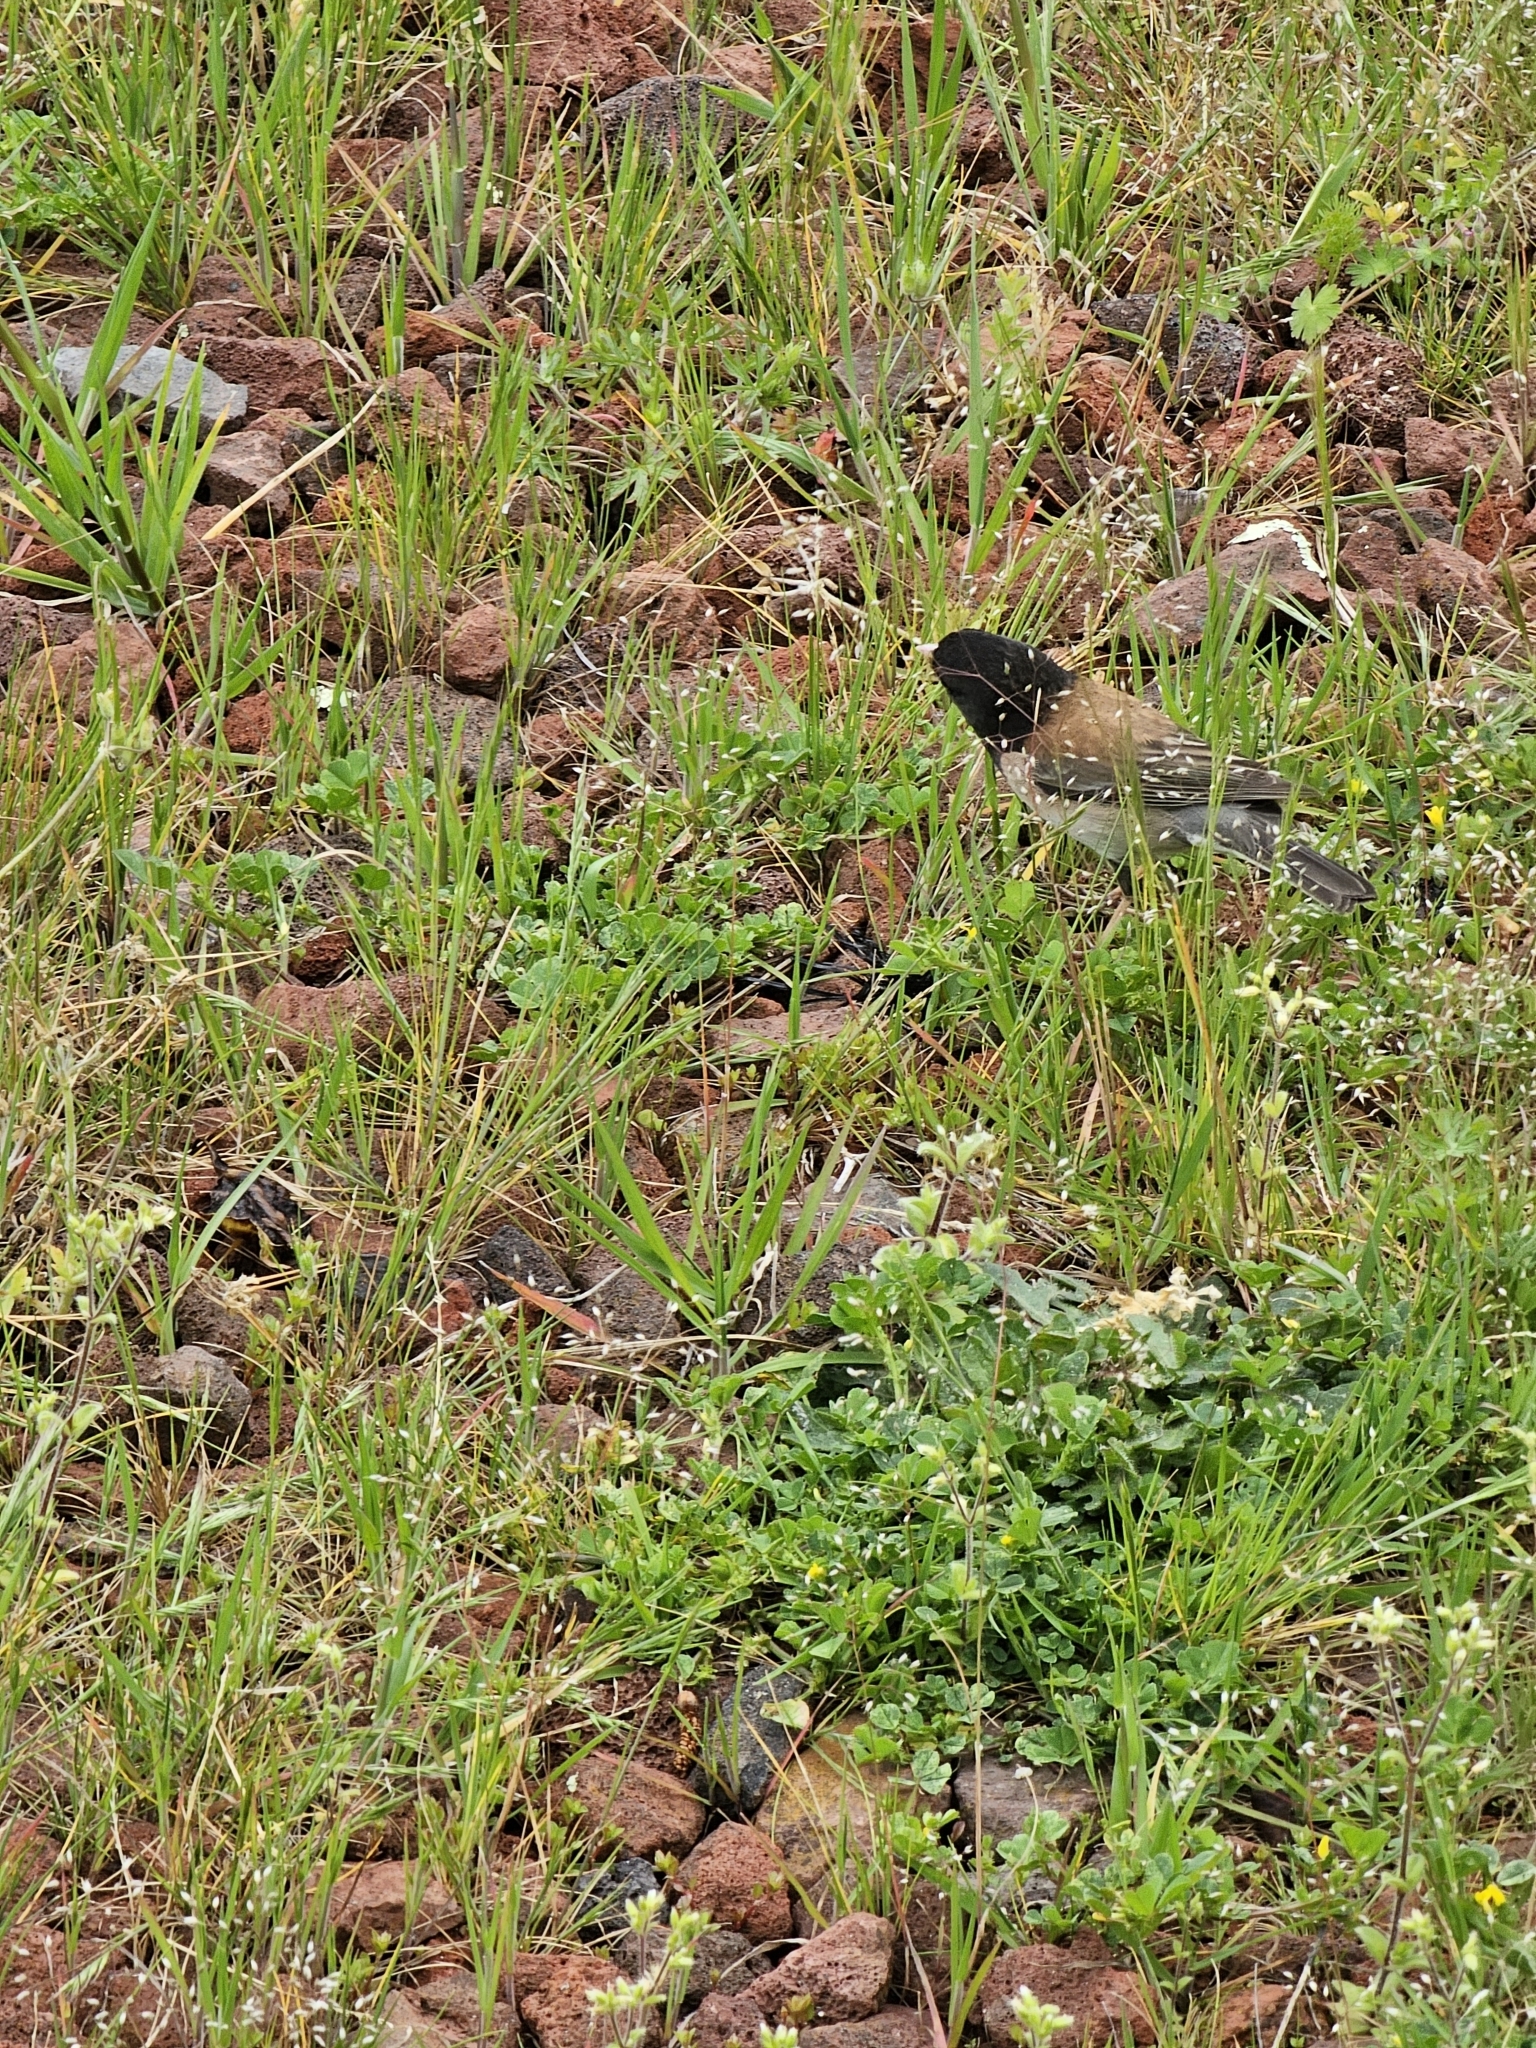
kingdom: Animalia
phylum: Chordata
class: Aves
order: Passeriformes
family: Passerellidae
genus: Junco
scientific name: Junco hyemalis
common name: Dark-eyed junco
